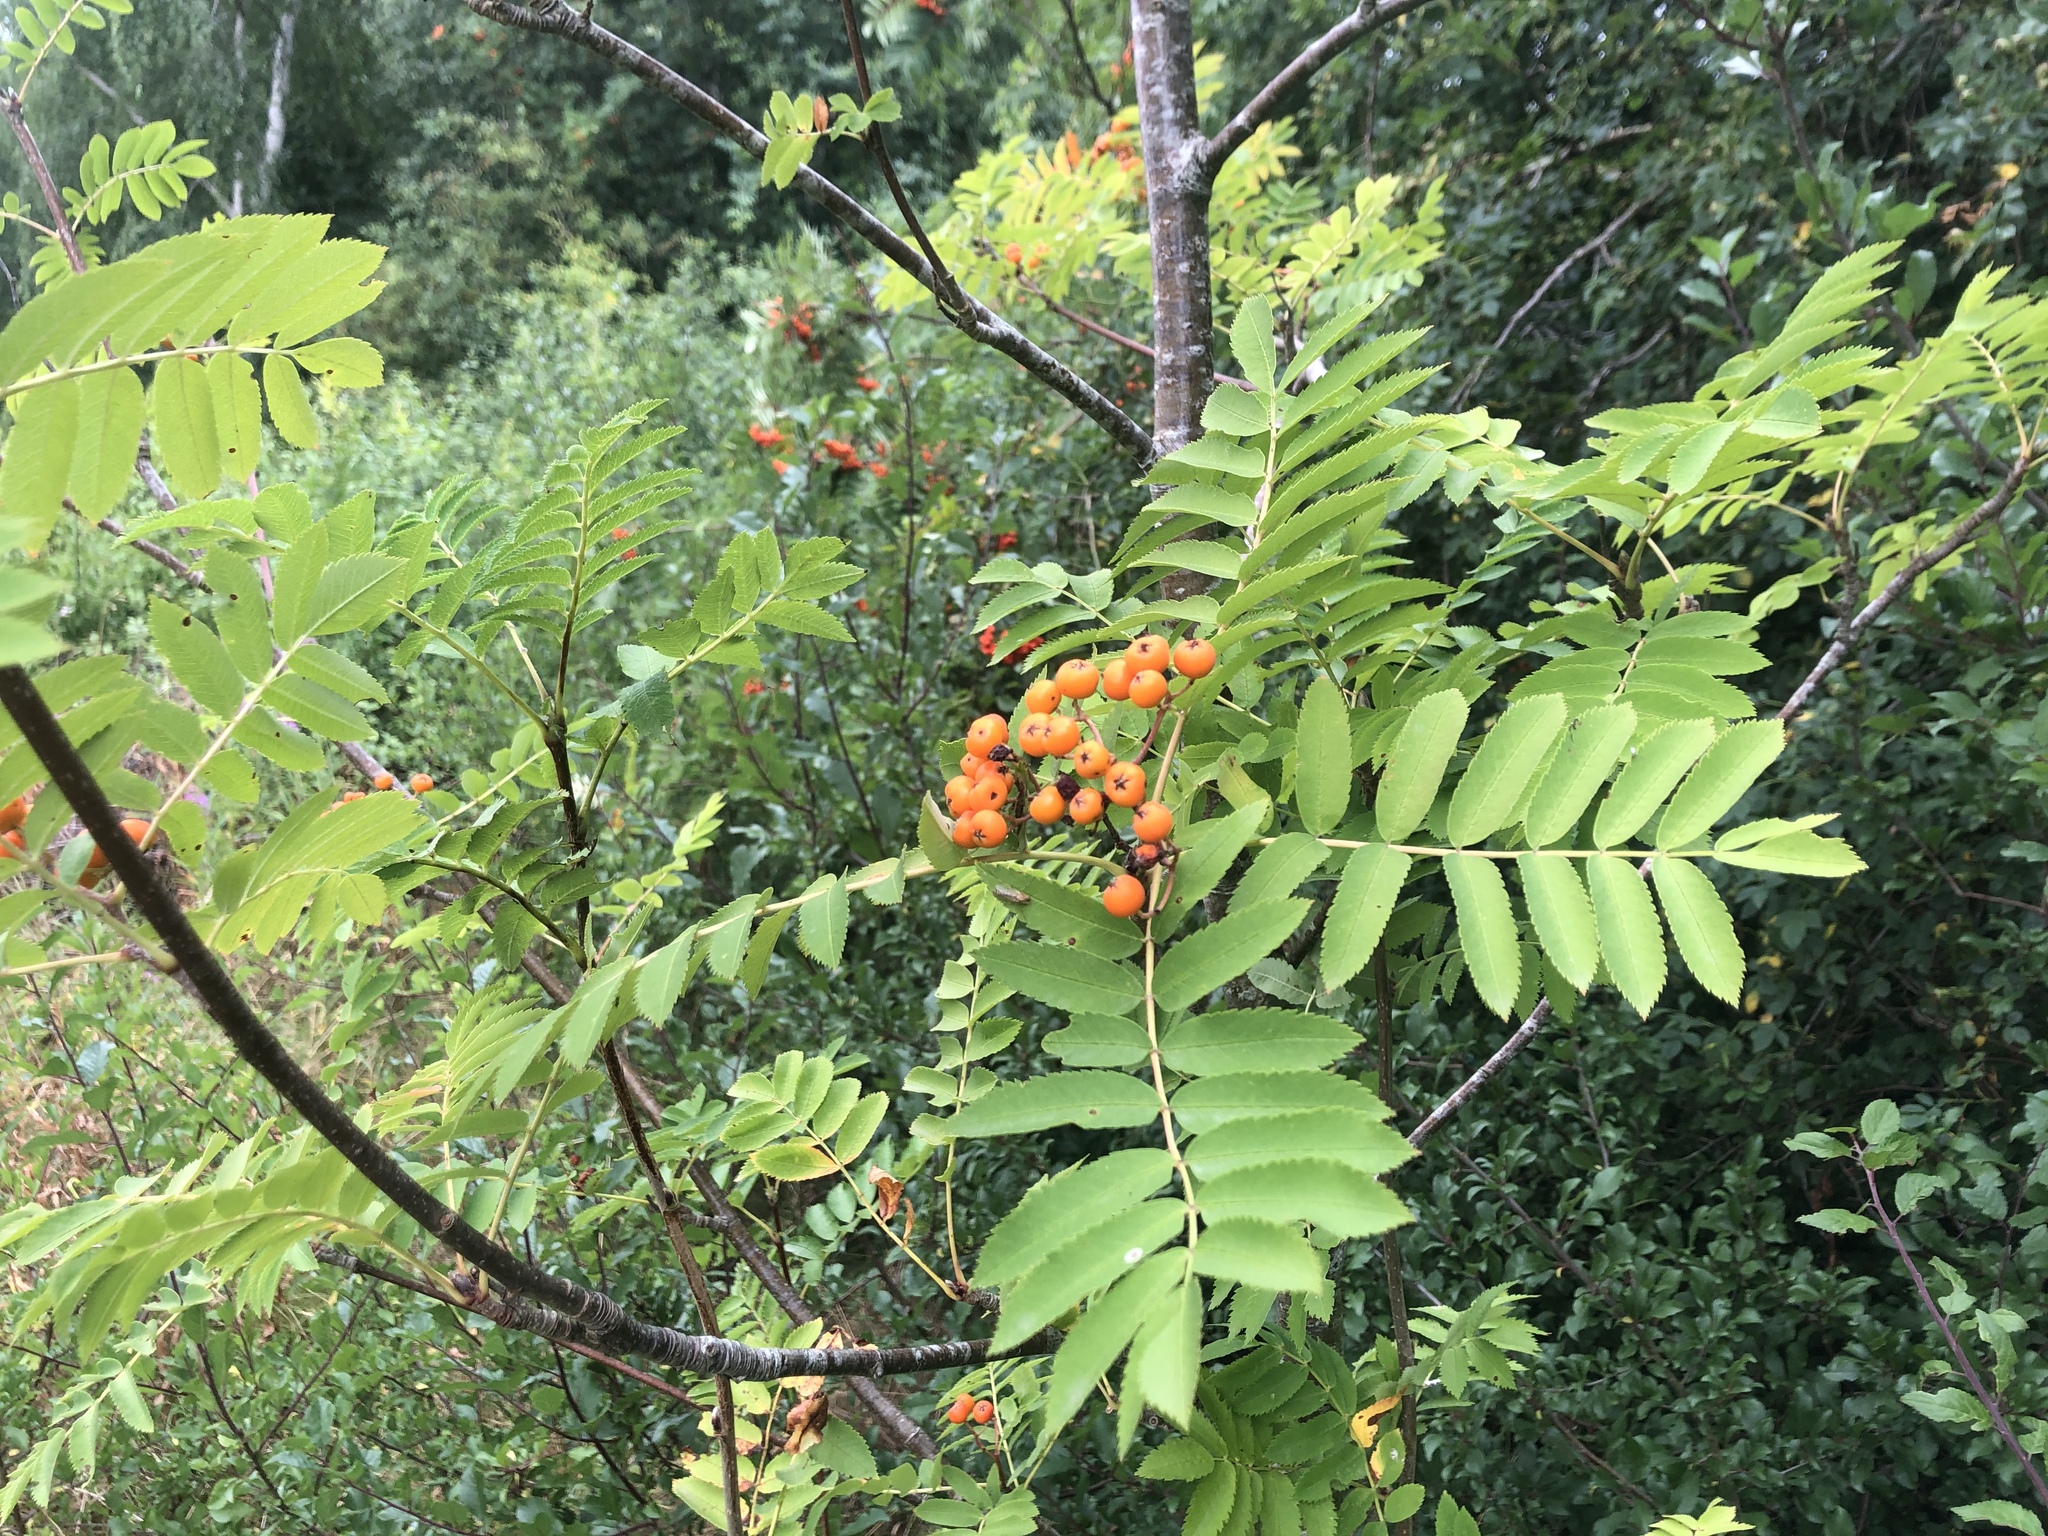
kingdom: Plantae
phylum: Tracheophyta
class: Magnoliopsida
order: Rosales
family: Rosaceae
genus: Sorbus
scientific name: Sorbus aucuparia
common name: Rowan
